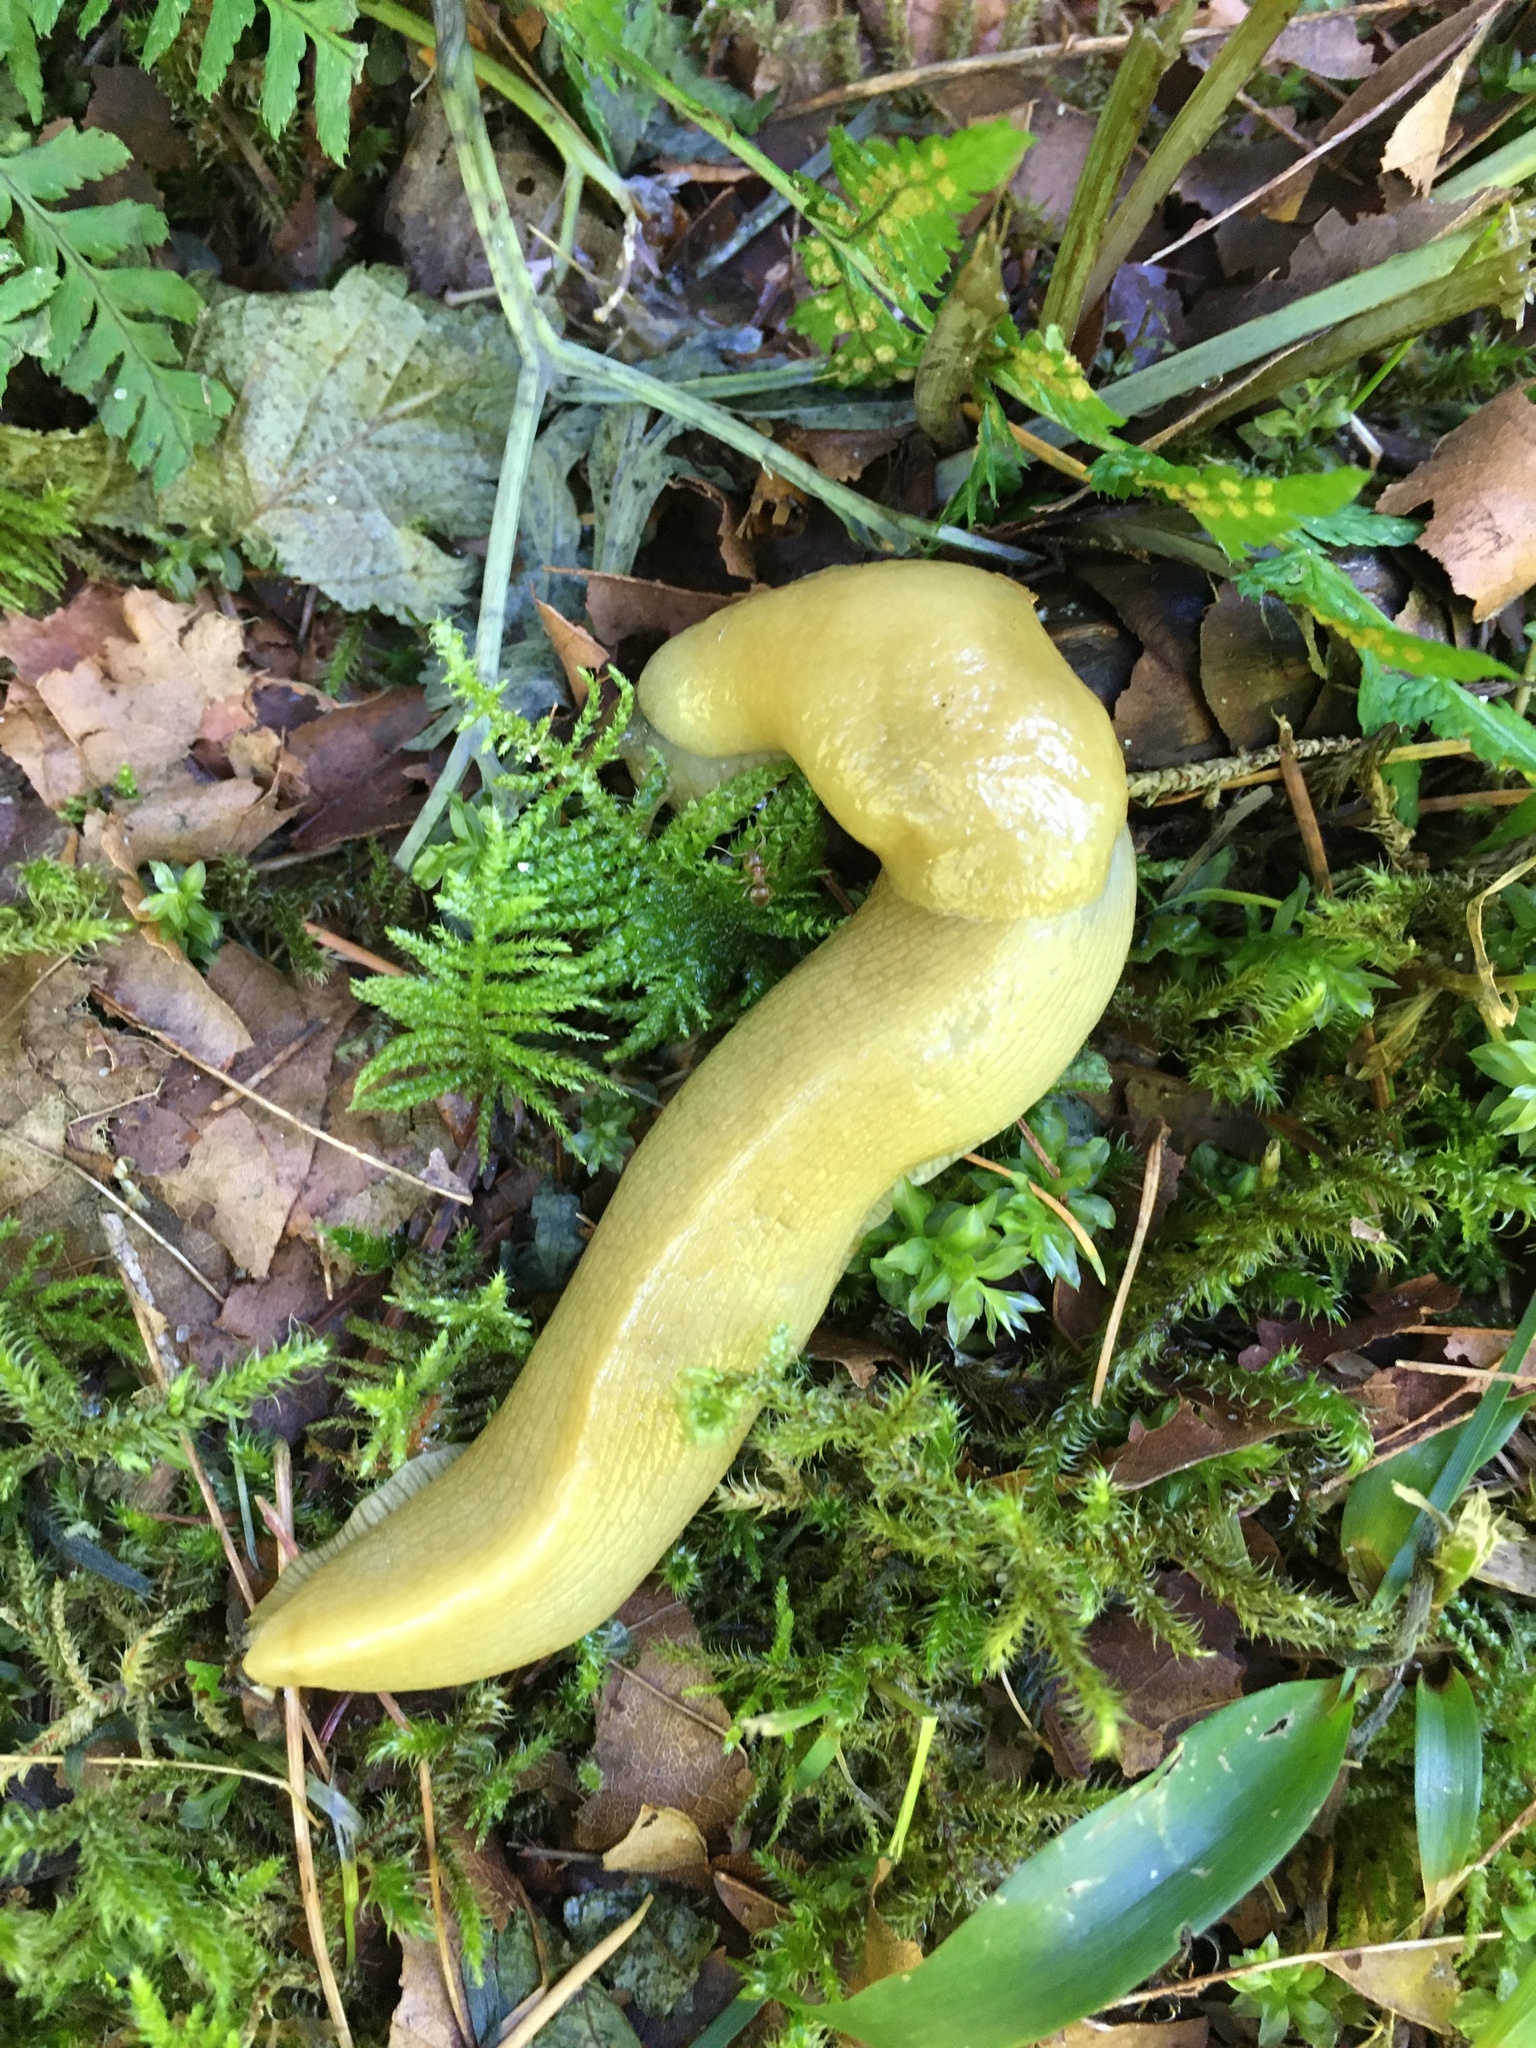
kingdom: Animalia
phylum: Mollusca
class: Gastropoda
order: Stylommatophora
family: Ariolimacidae
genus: Ariolimax
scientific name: Ariolimax columbianus
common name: Pacific banana slug
